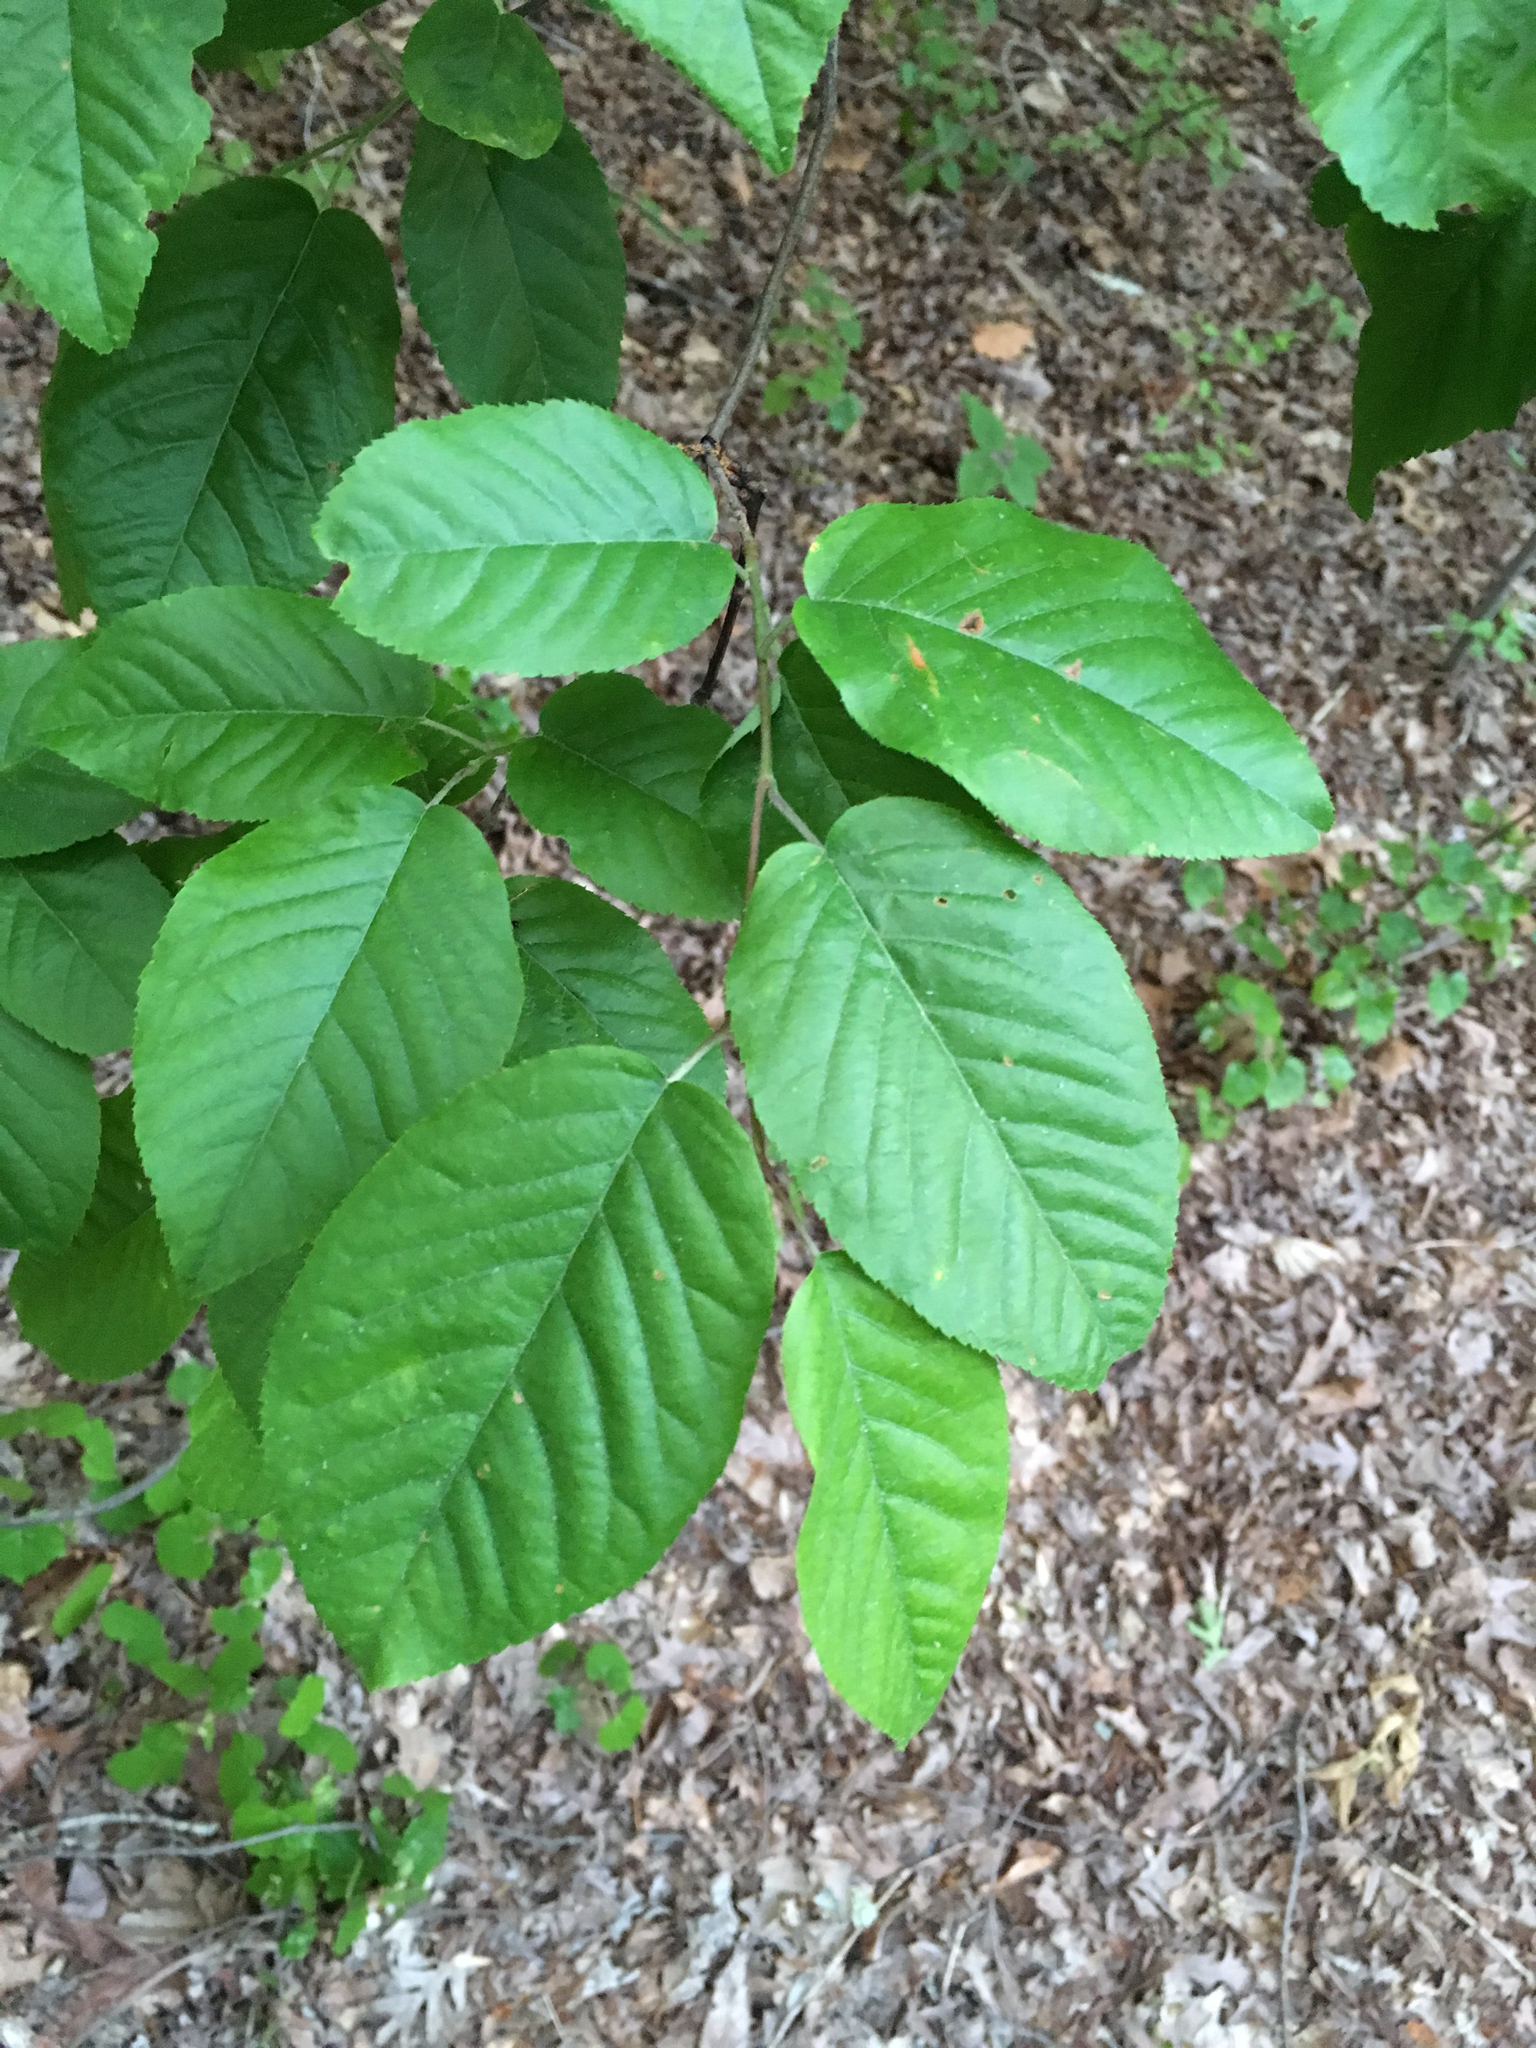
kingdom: Plantae
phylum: Tracheophyta
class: Magnoliopsida
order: Rosales
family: Rosaceae
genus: Amelanchier
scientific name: Amelanchier arborea
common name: Downy serviceberry
